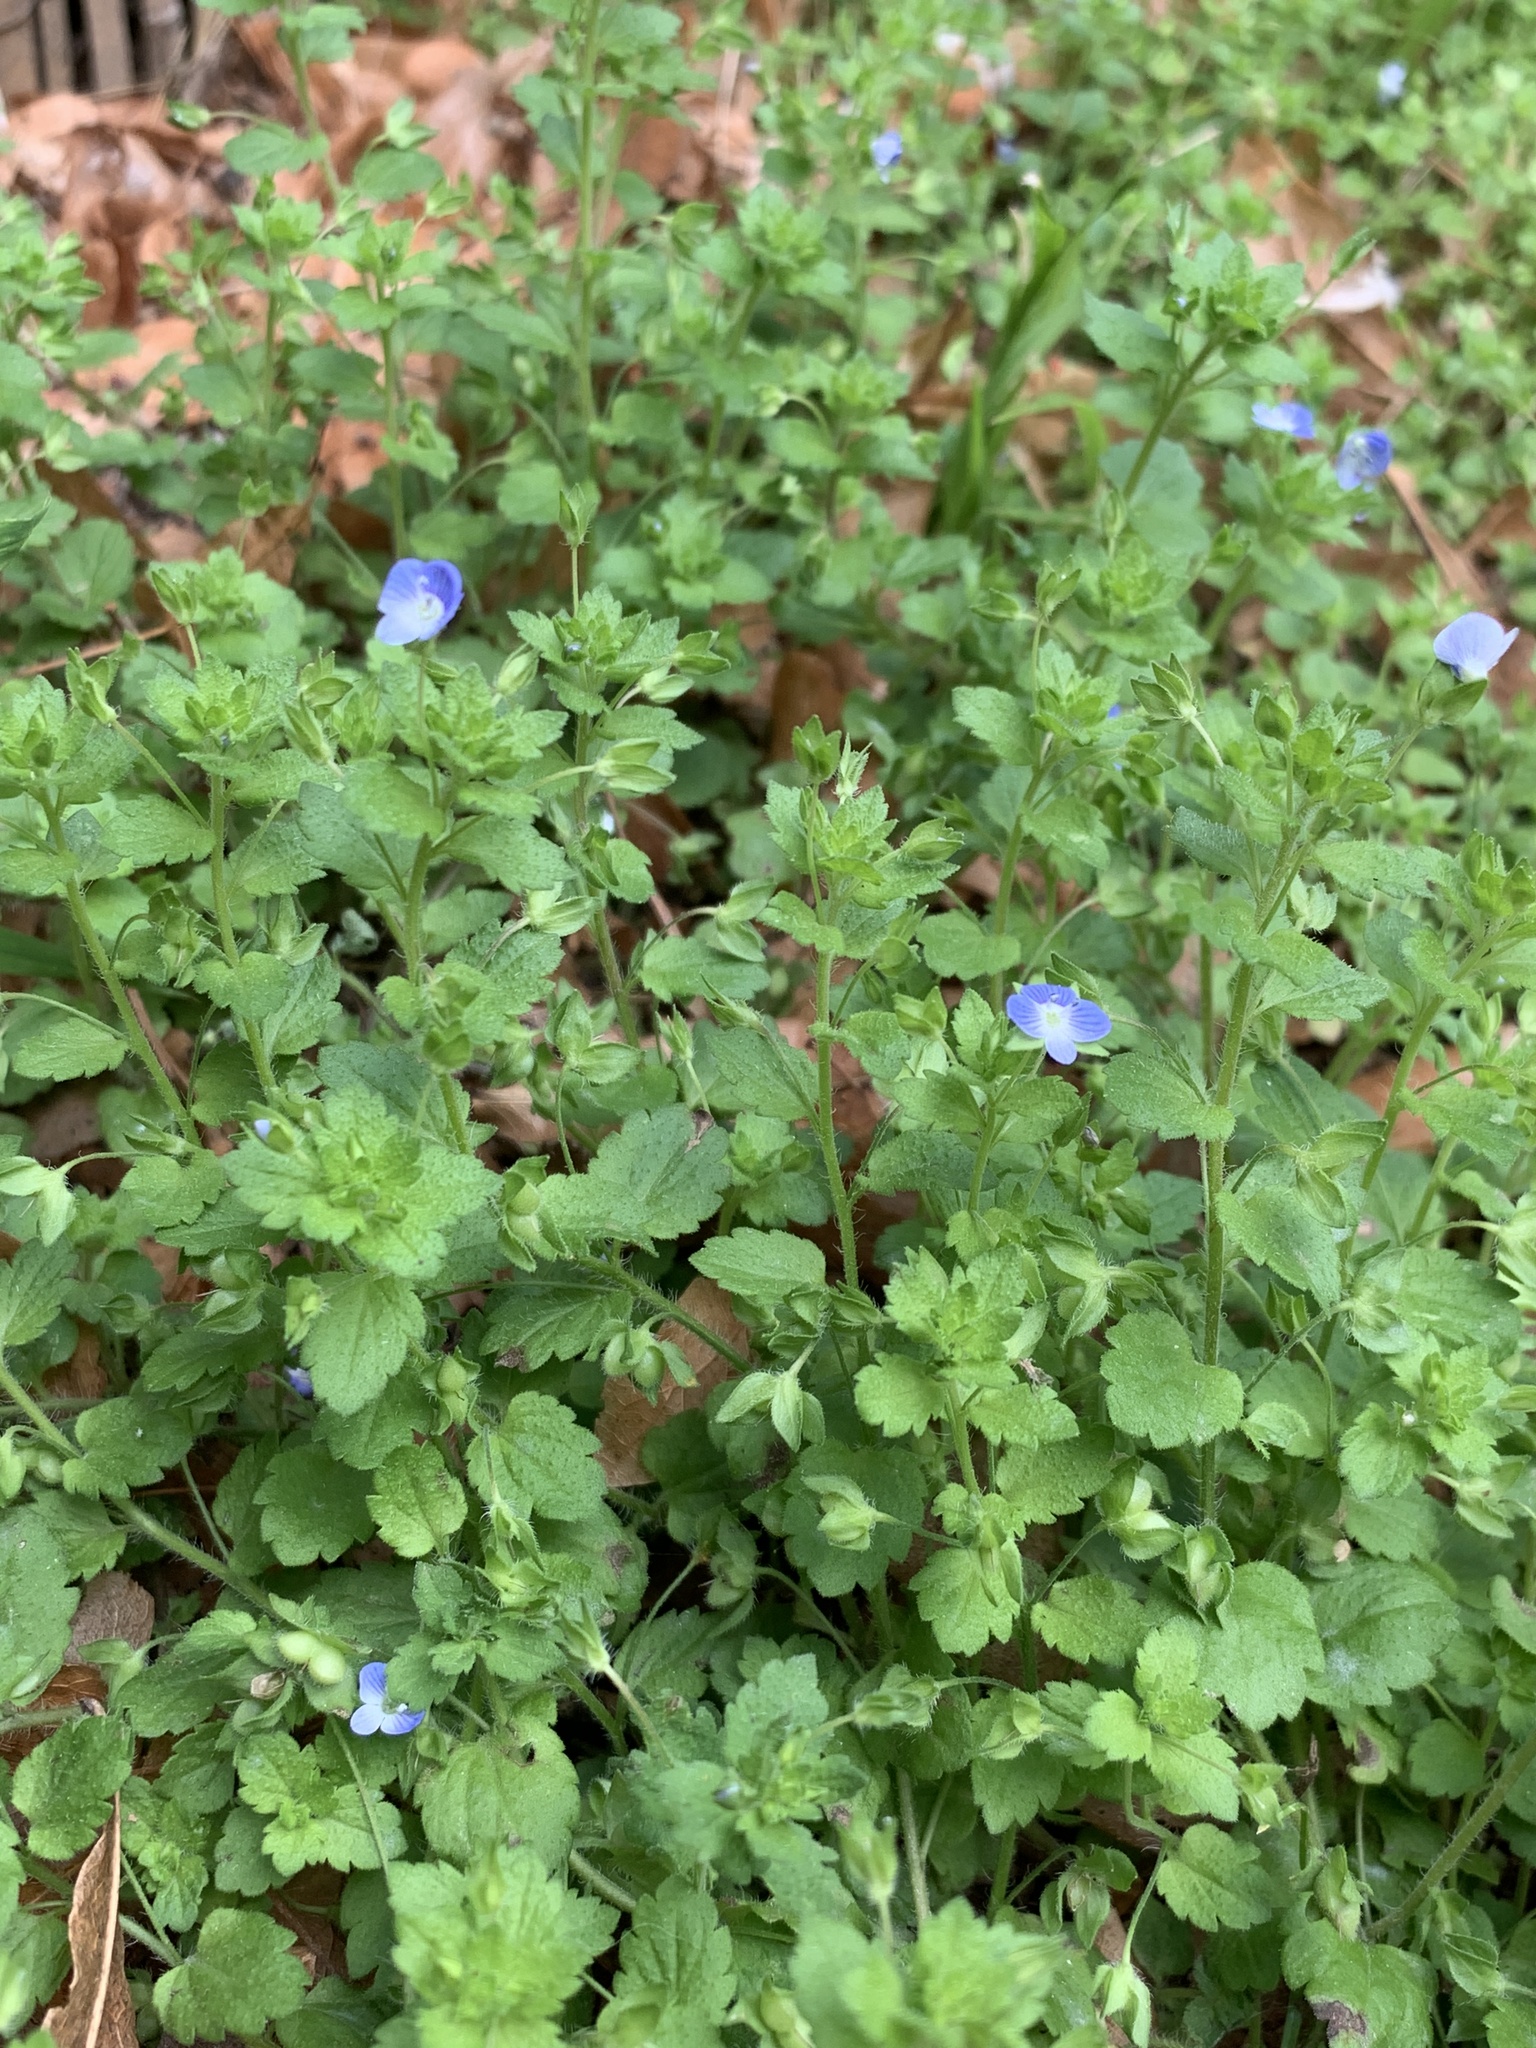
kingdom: Plantae
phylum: Tracheophyta
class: Magnoliopsida
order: Lamiales
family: Plantaginaceae
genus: Veronica
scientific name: Veronica persica
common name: Common field-speedwell
